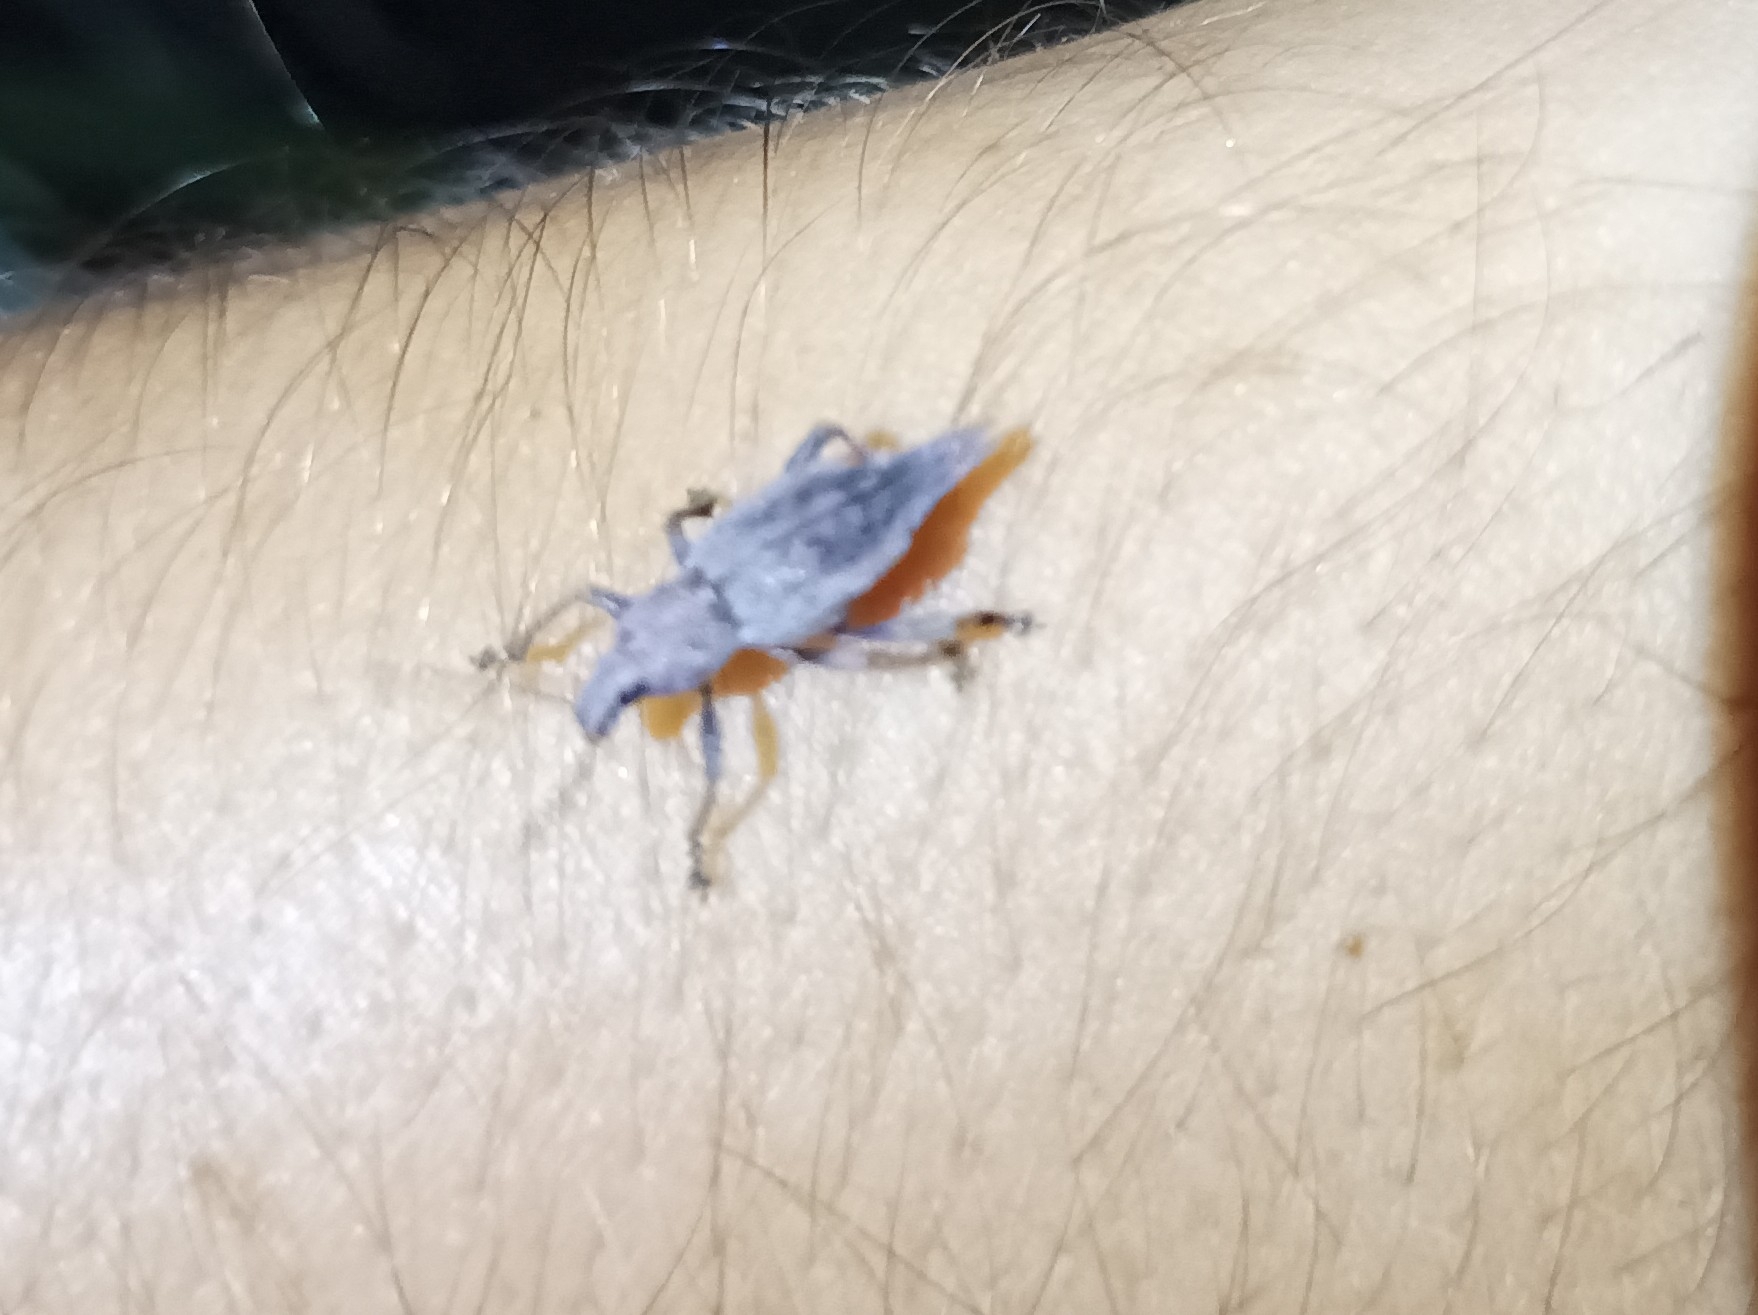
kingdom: Animalia
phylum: Arthropoda
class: Insecta
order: Coleoptera
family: Curculionidae
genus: Elytrurus
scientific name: Elytrurus caudatus
